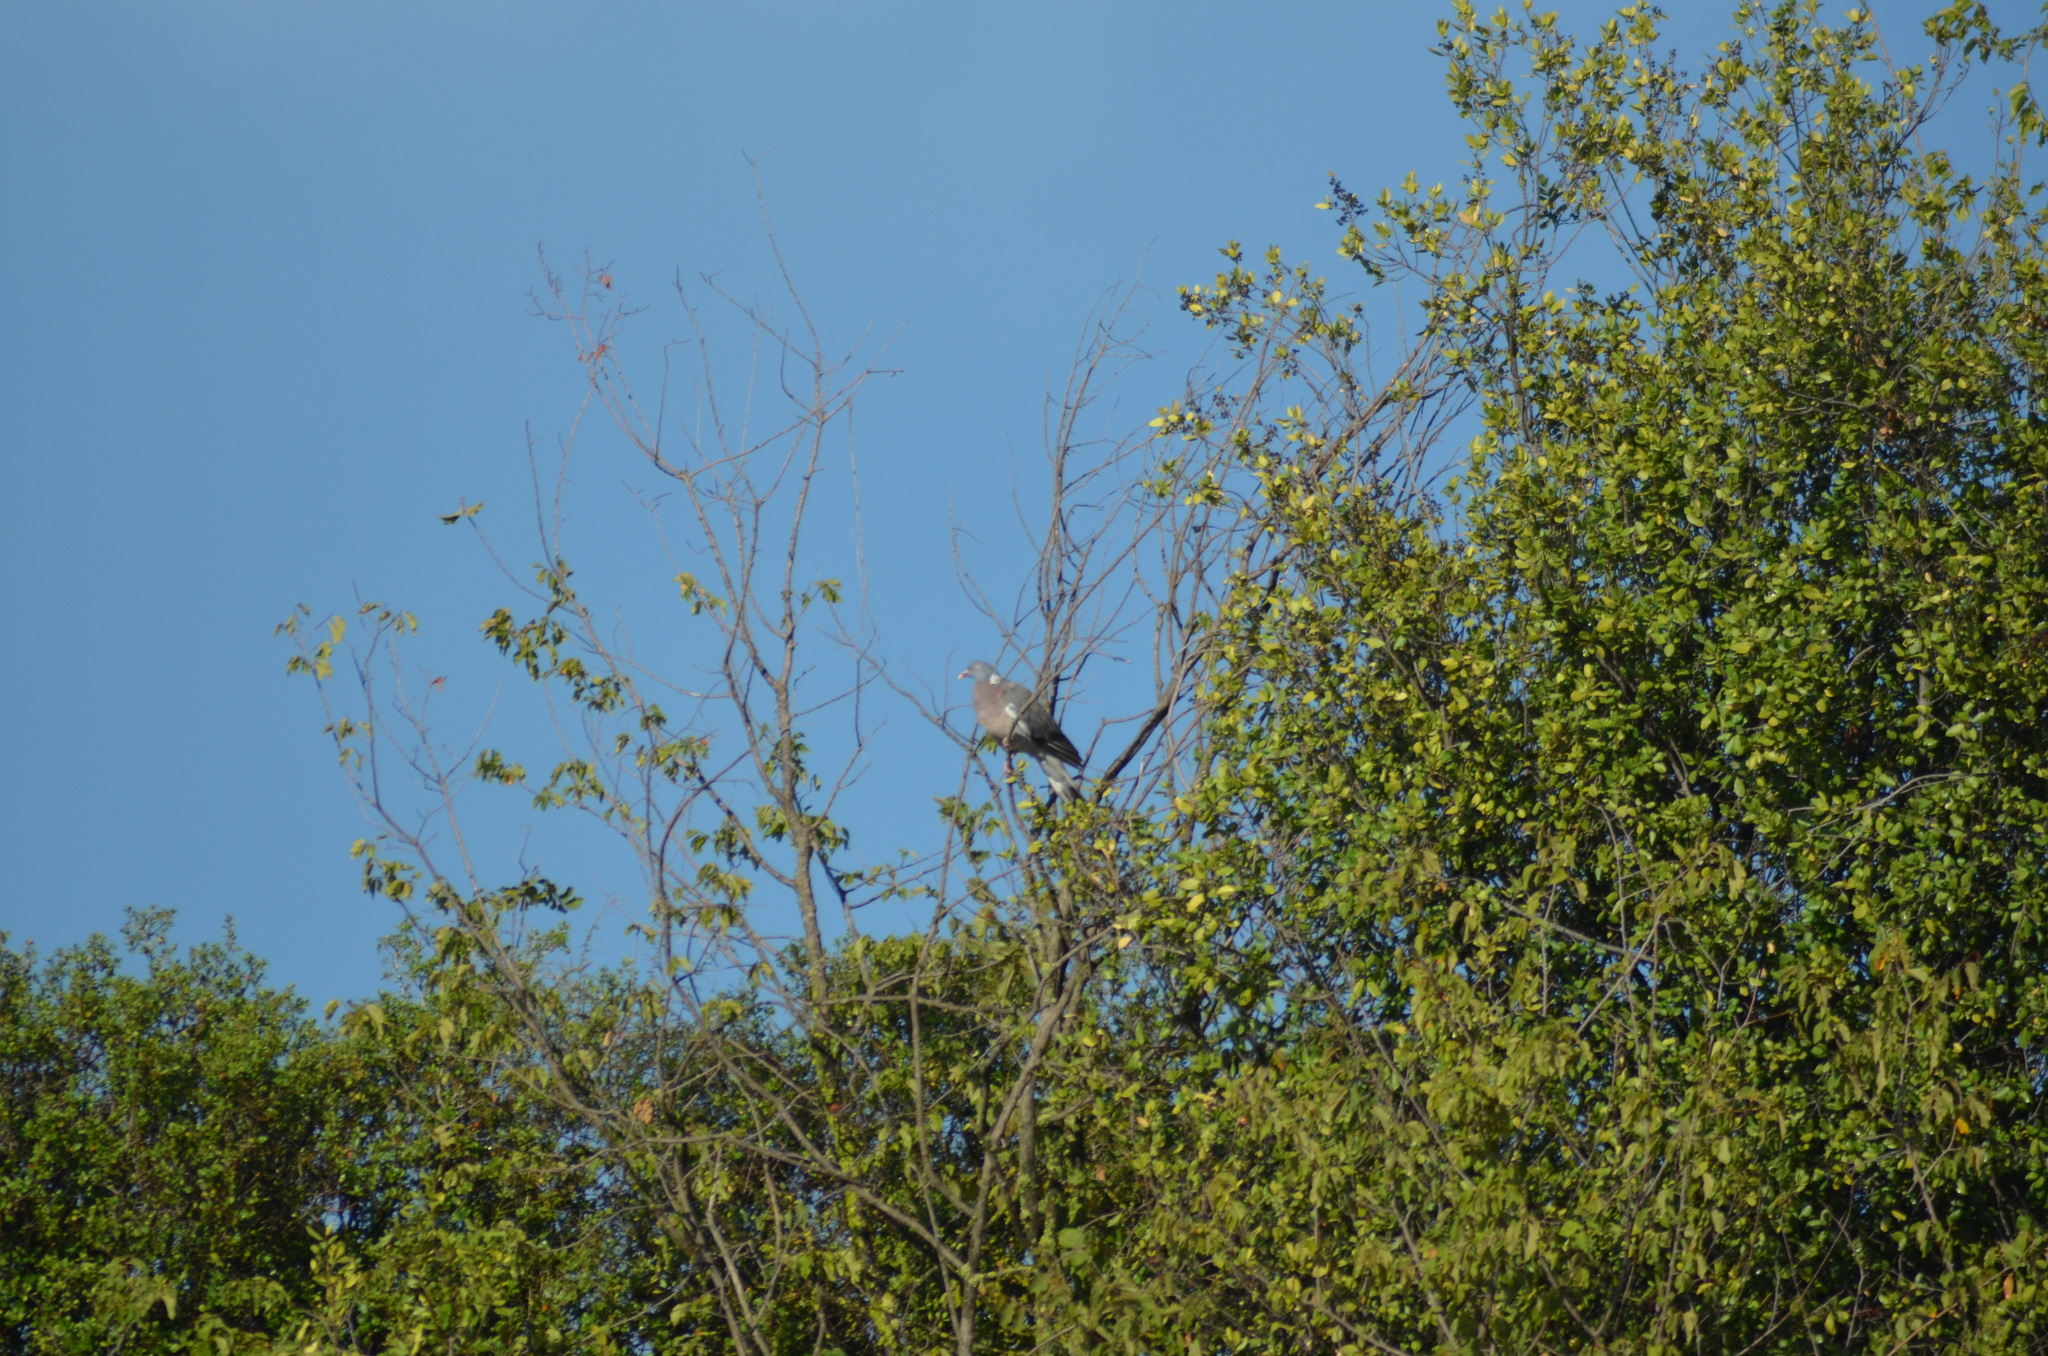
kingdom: Animalia
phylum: Chordata
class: Aves
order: Columbiformes
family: Columbidae
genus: Columba
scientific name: Columba palumbus
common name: Common wood pigeon
